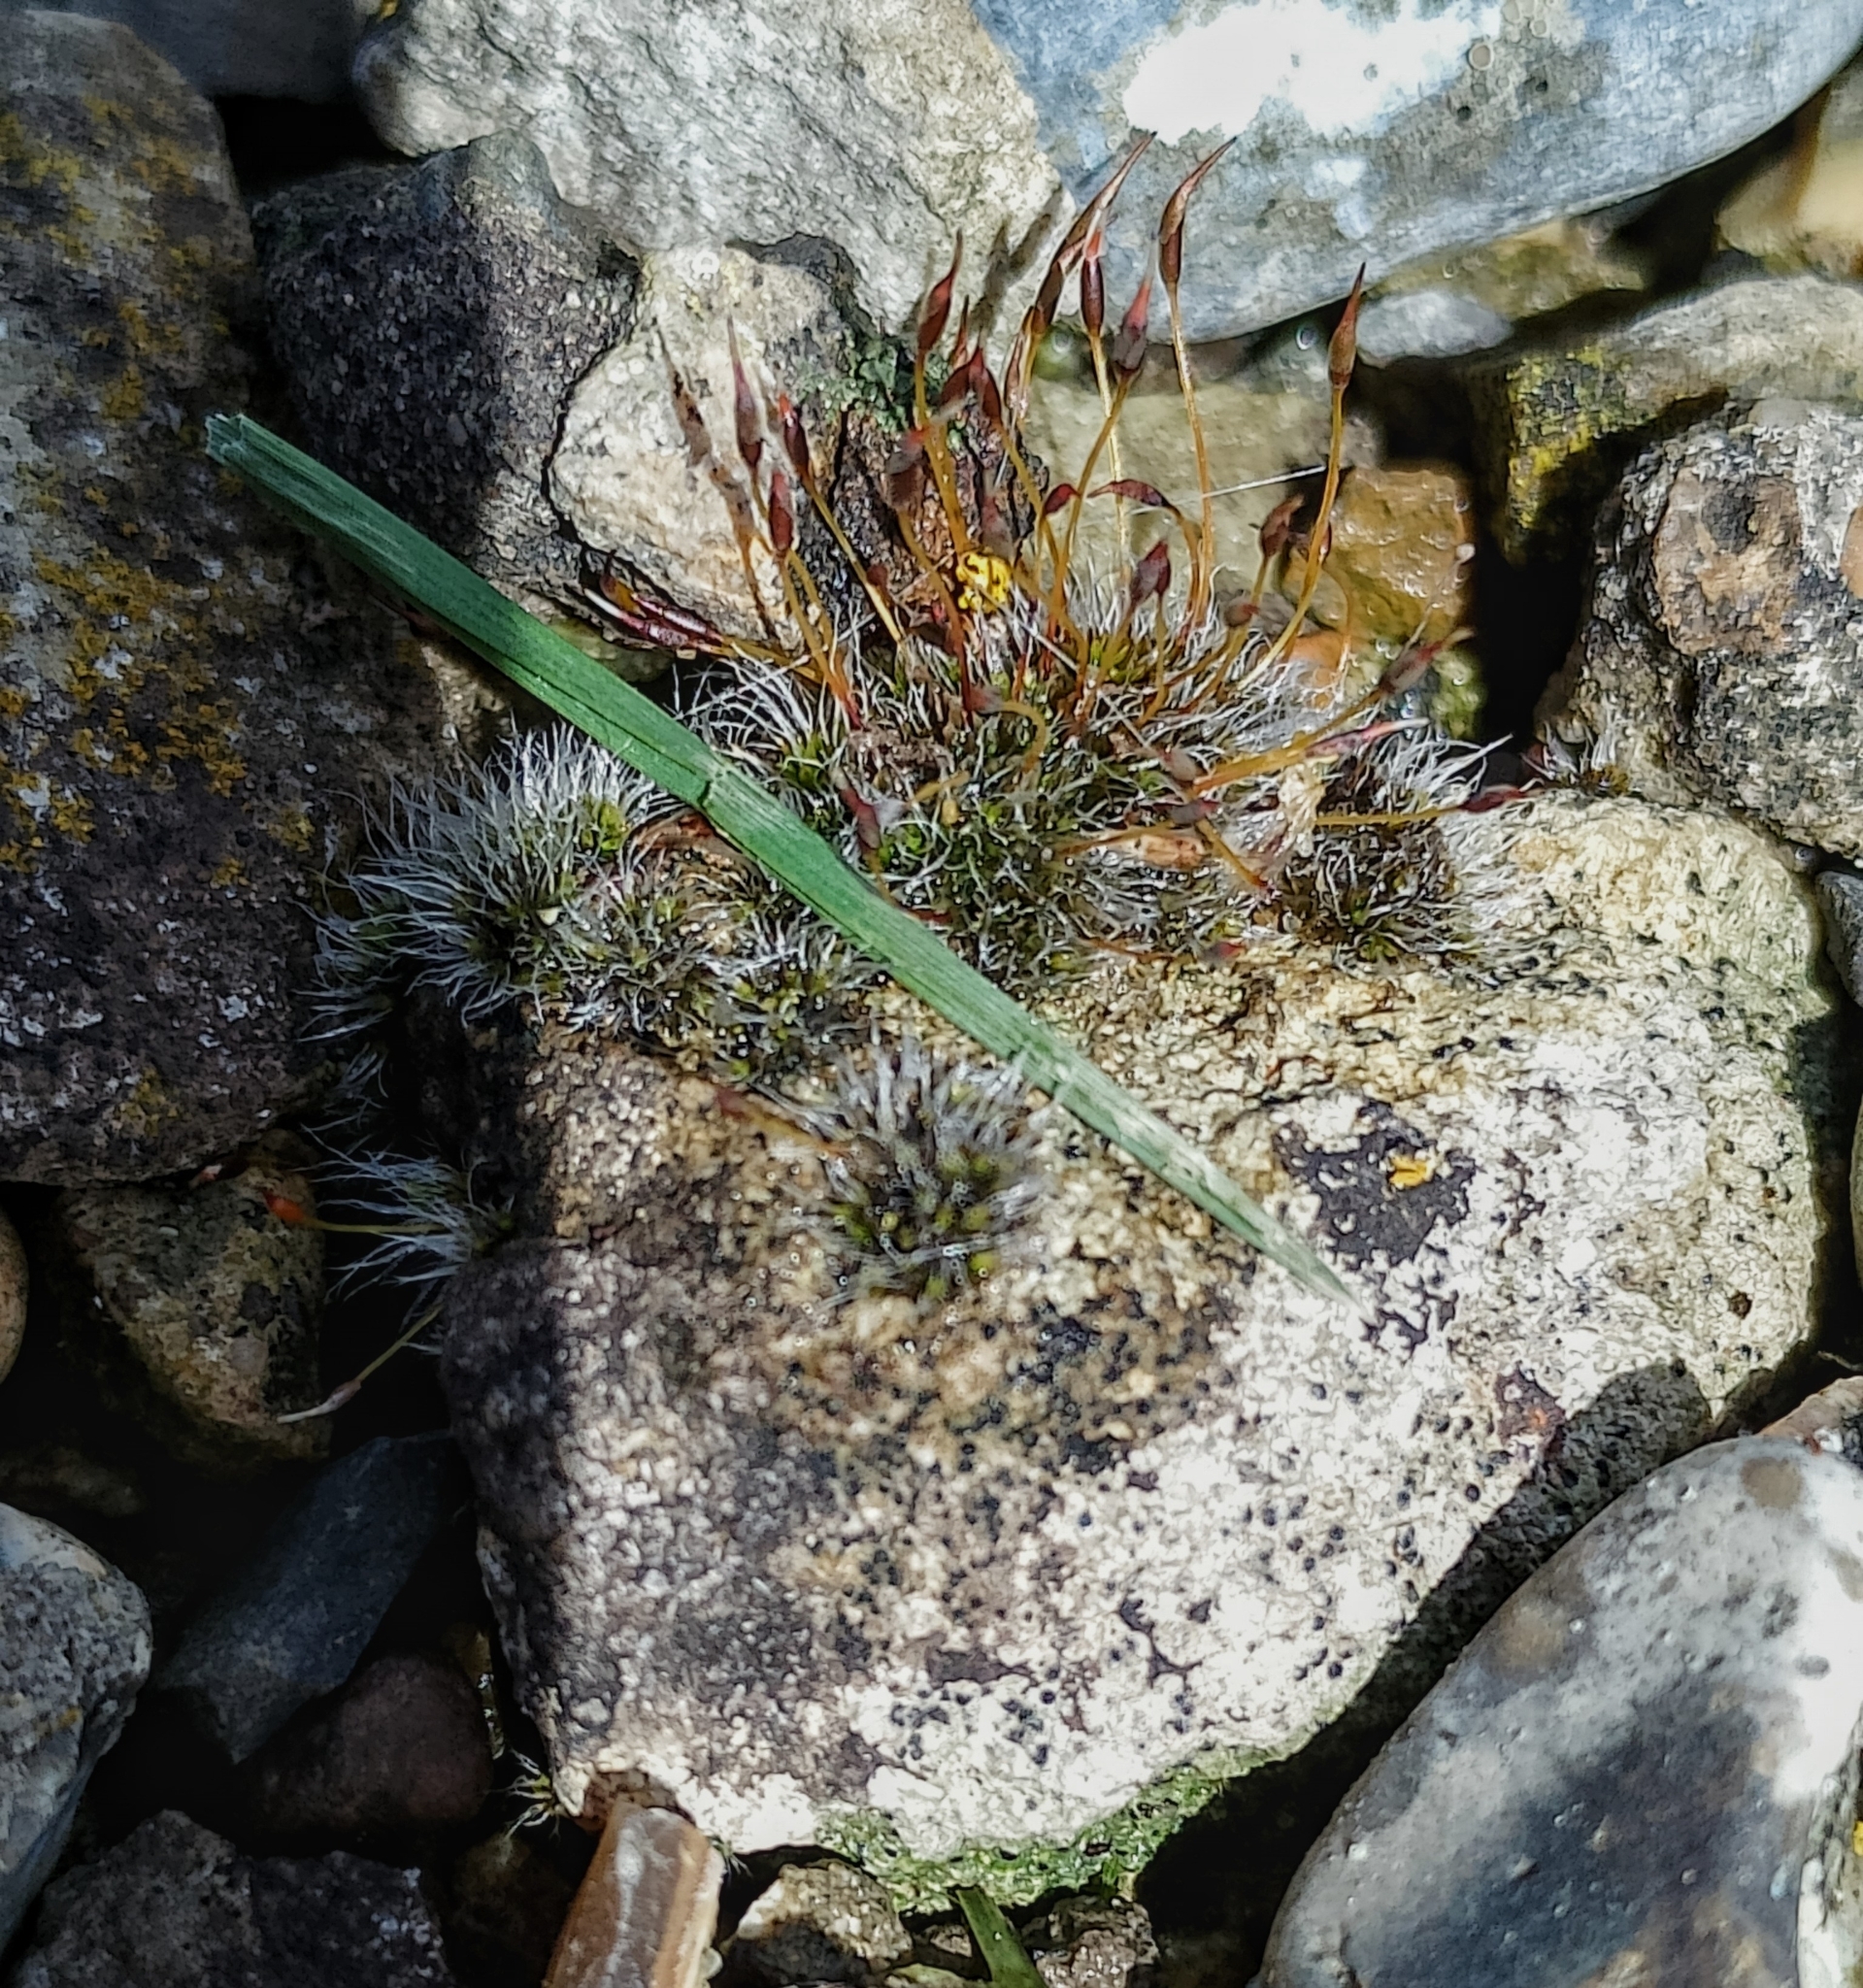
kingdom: Plantae
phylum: Bryophyta
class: Bryopsida
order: Pottiales
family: Pottiaceae
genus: Tortula
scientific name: Tortula muralis
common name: Wall screw-moss
